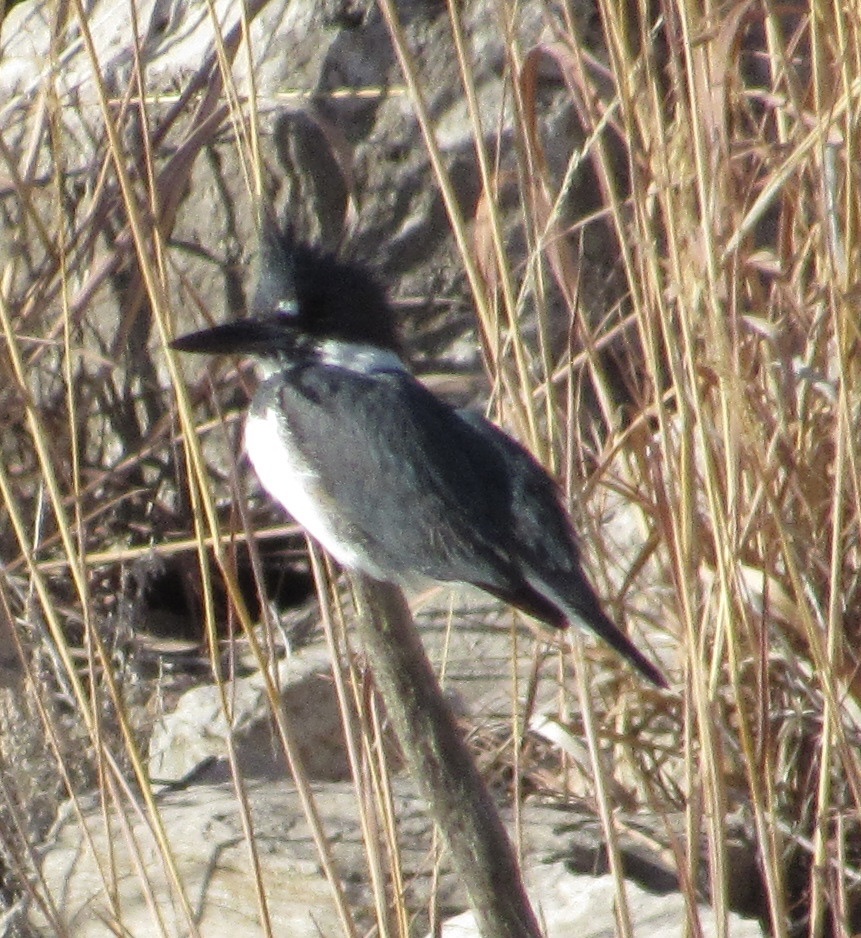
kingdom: Animalia
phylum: Chordata
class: Aves
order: Coraciiformes
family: Alcedinidae
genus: Megaceryle
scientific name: Megaceryle alcyon
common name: Belted kingfisher
